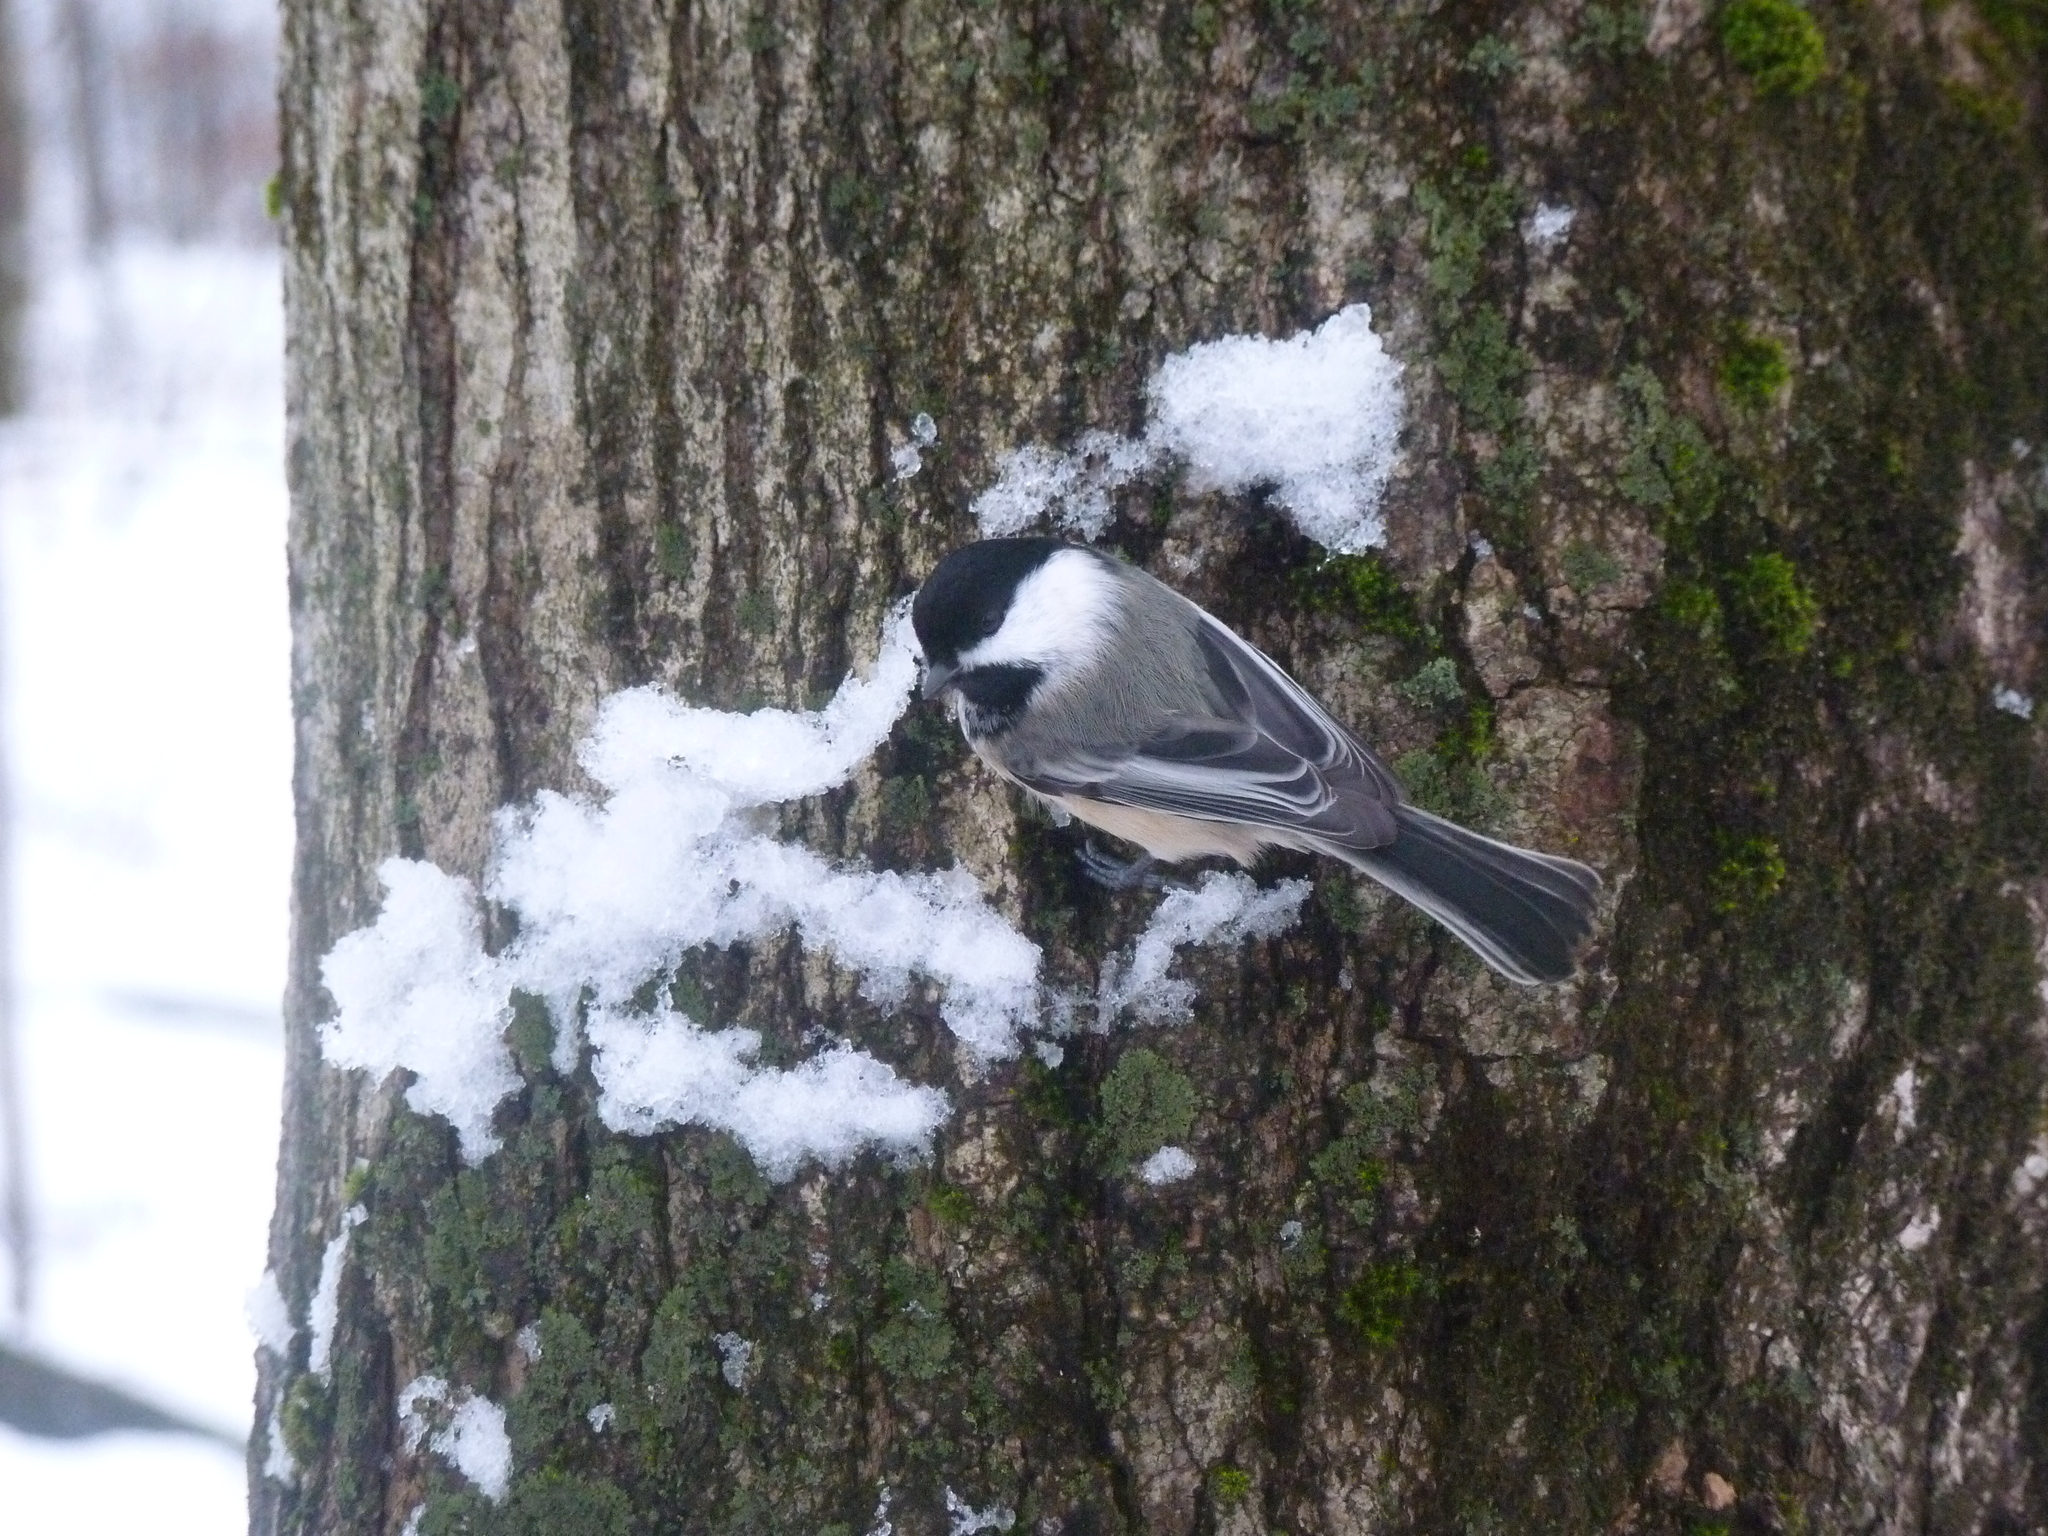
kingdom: Animalia
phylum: Chordata
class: Aves
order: Passeriformes
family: Paridae
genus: Poecile
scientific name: Poecile atricapillus
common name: Black-capped chickadee
